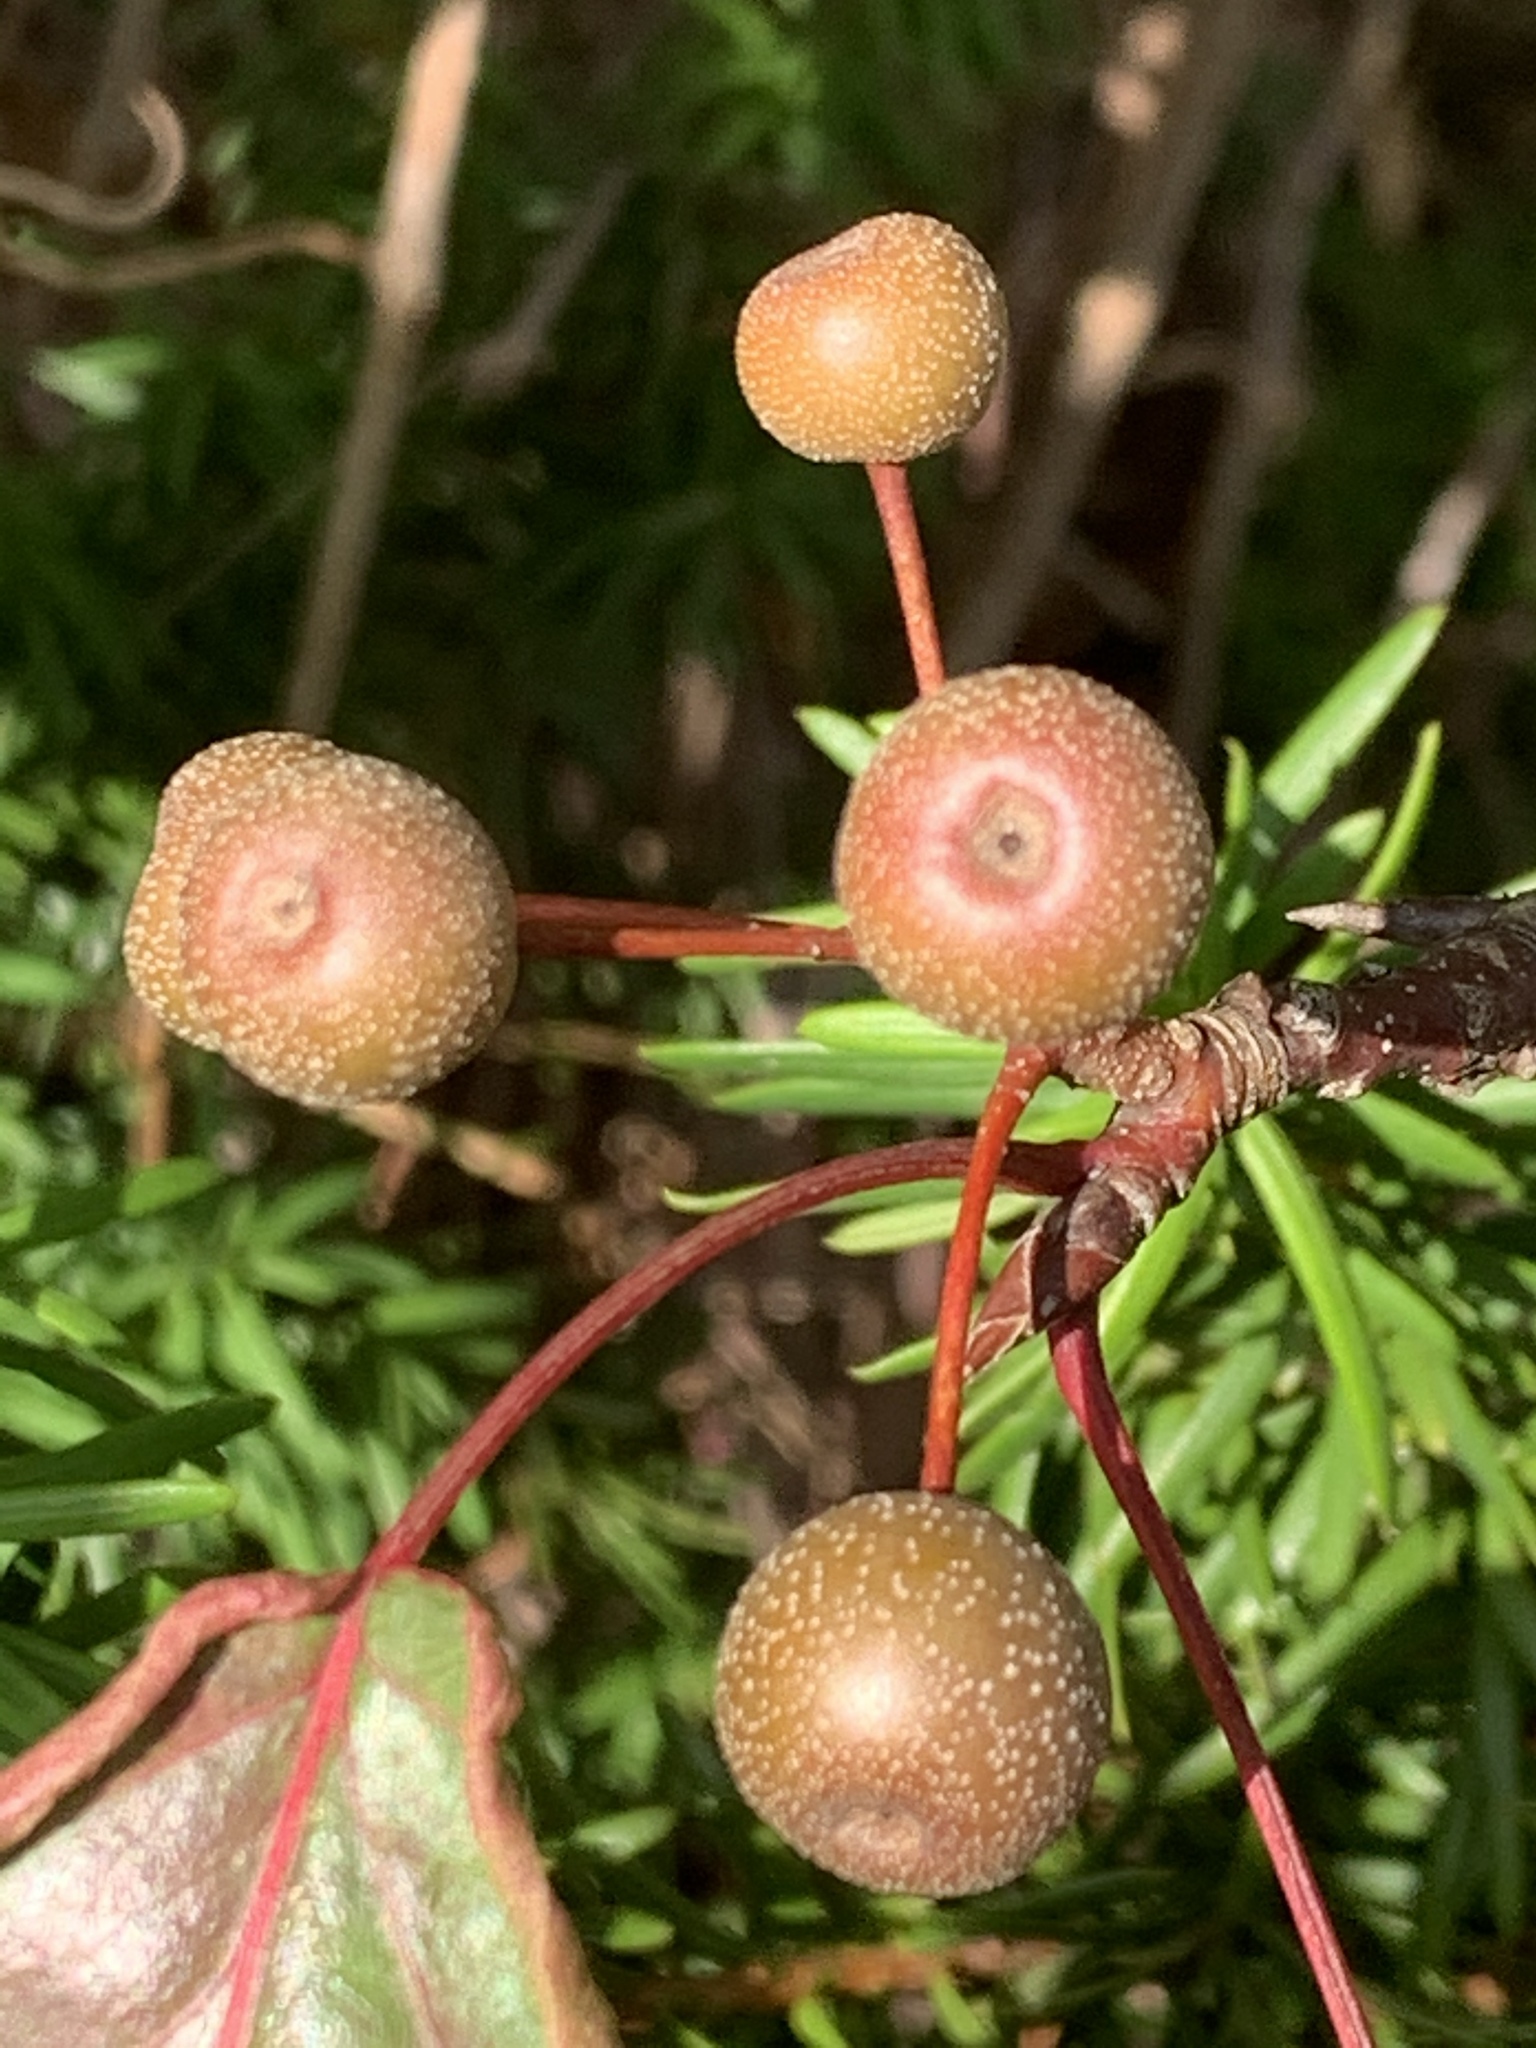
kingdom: Plantae
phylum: Tracheophyta
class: Magnoliopsida
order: Rosales
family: Rosaceae
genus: Pyrus
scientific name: Pyrus calleryana
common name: Callery pear
